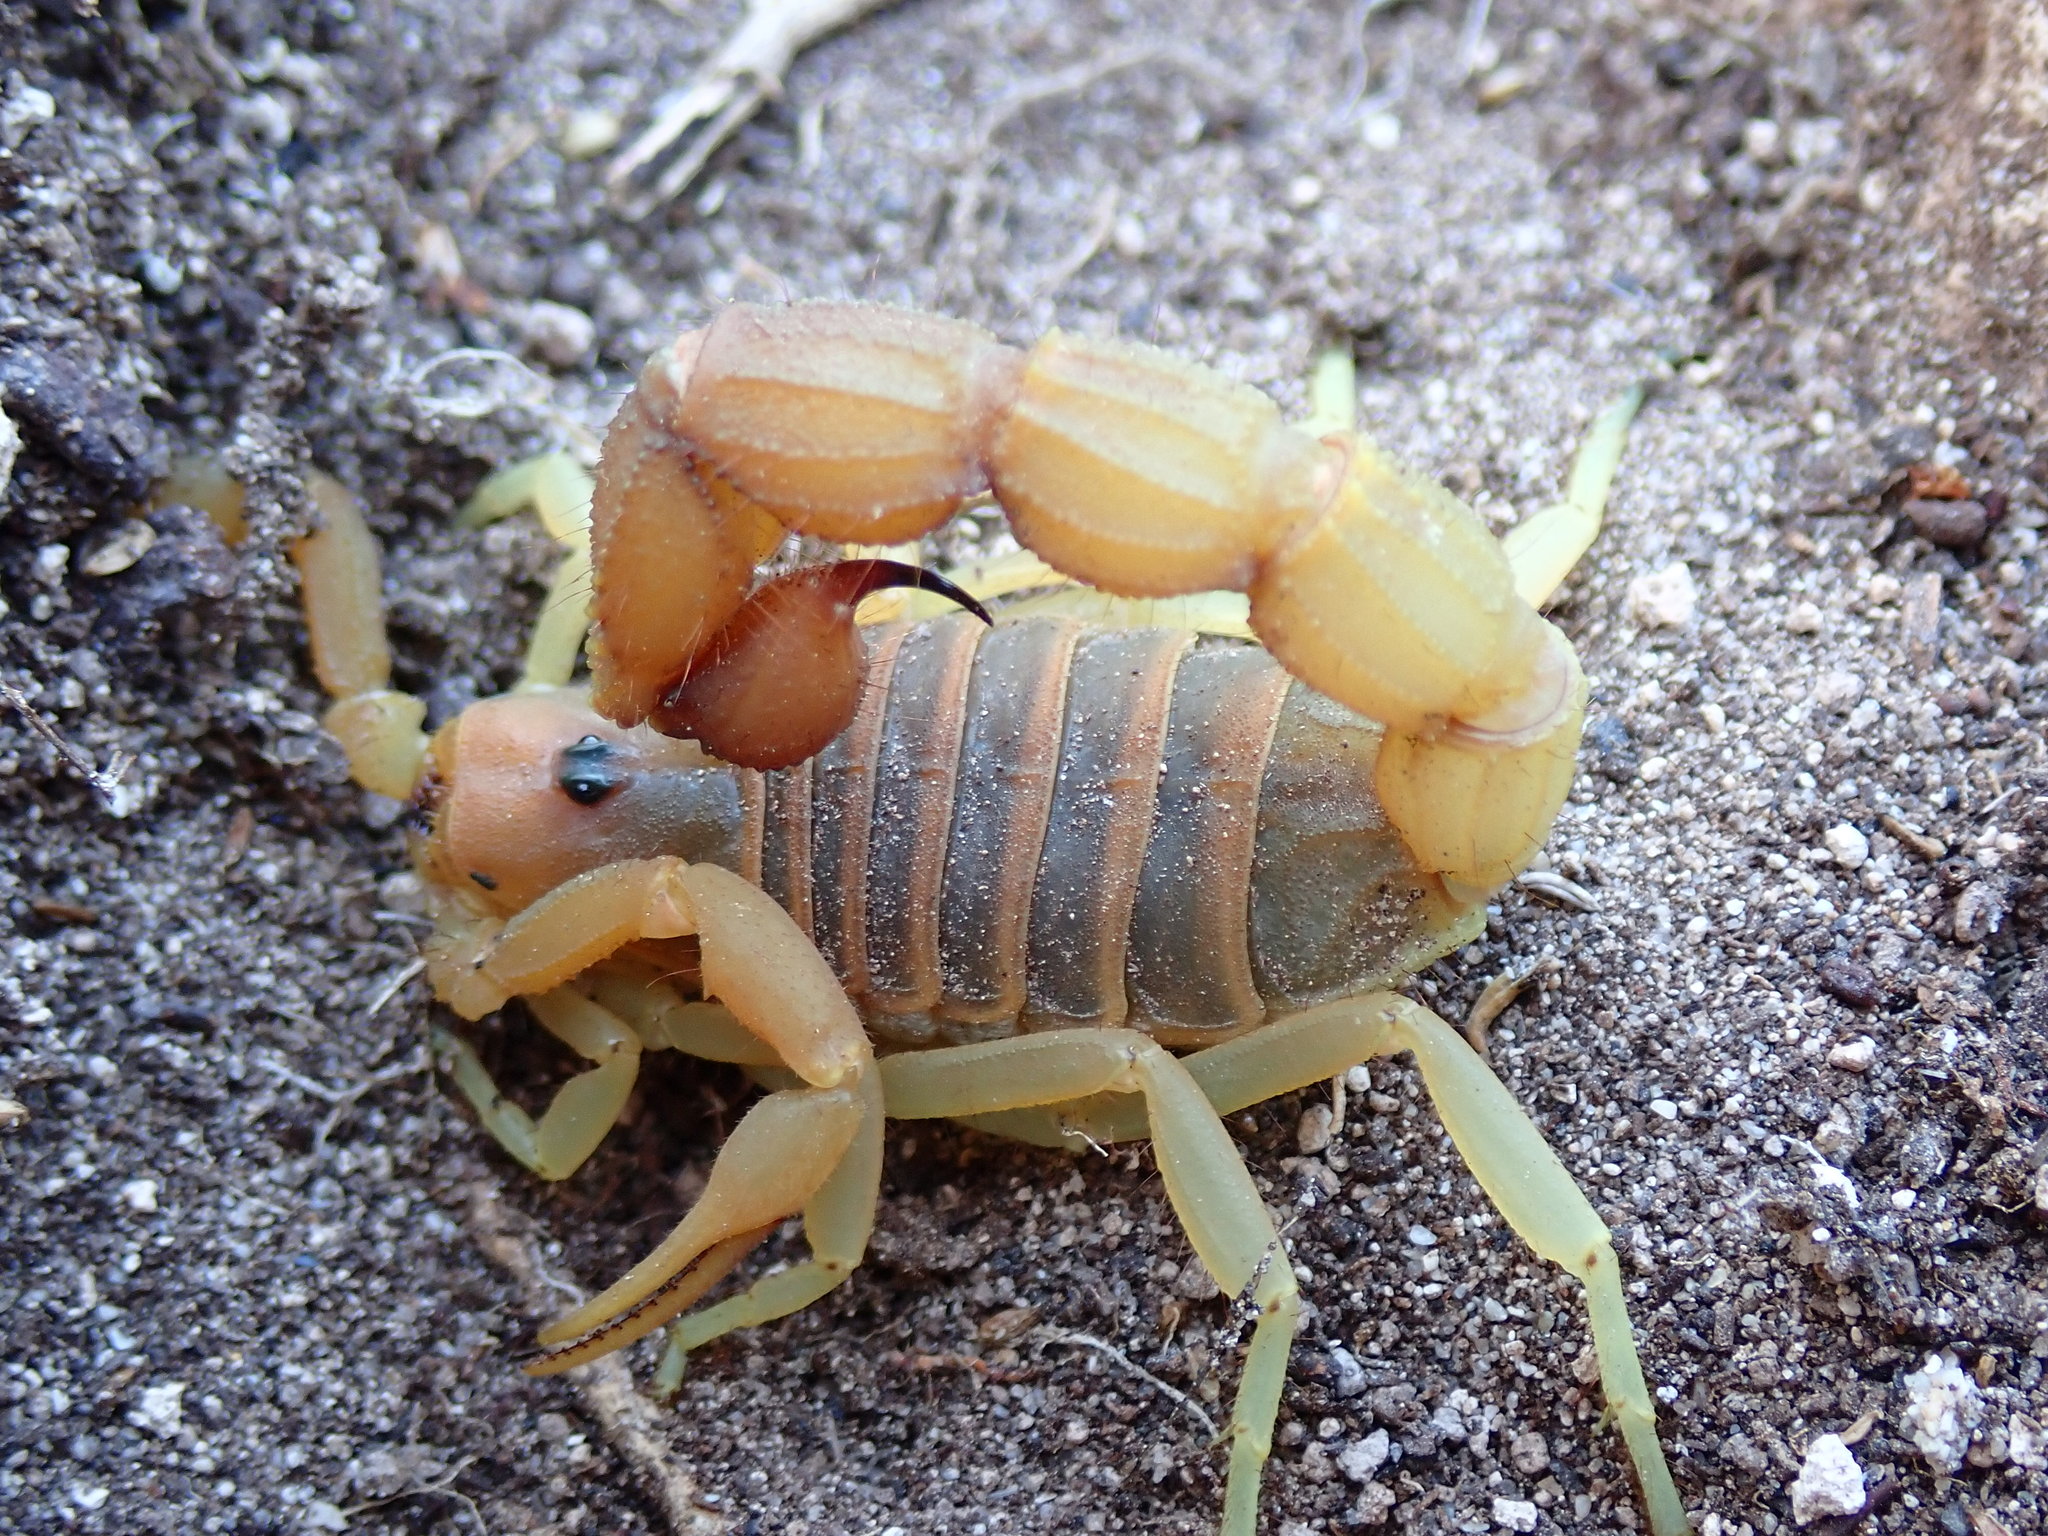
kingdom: Animalia
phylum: Arthropoda
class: Arachnida
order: Scorpiones
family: Buthidae
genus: Parabuthus
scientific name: Parabuthus planicauda
